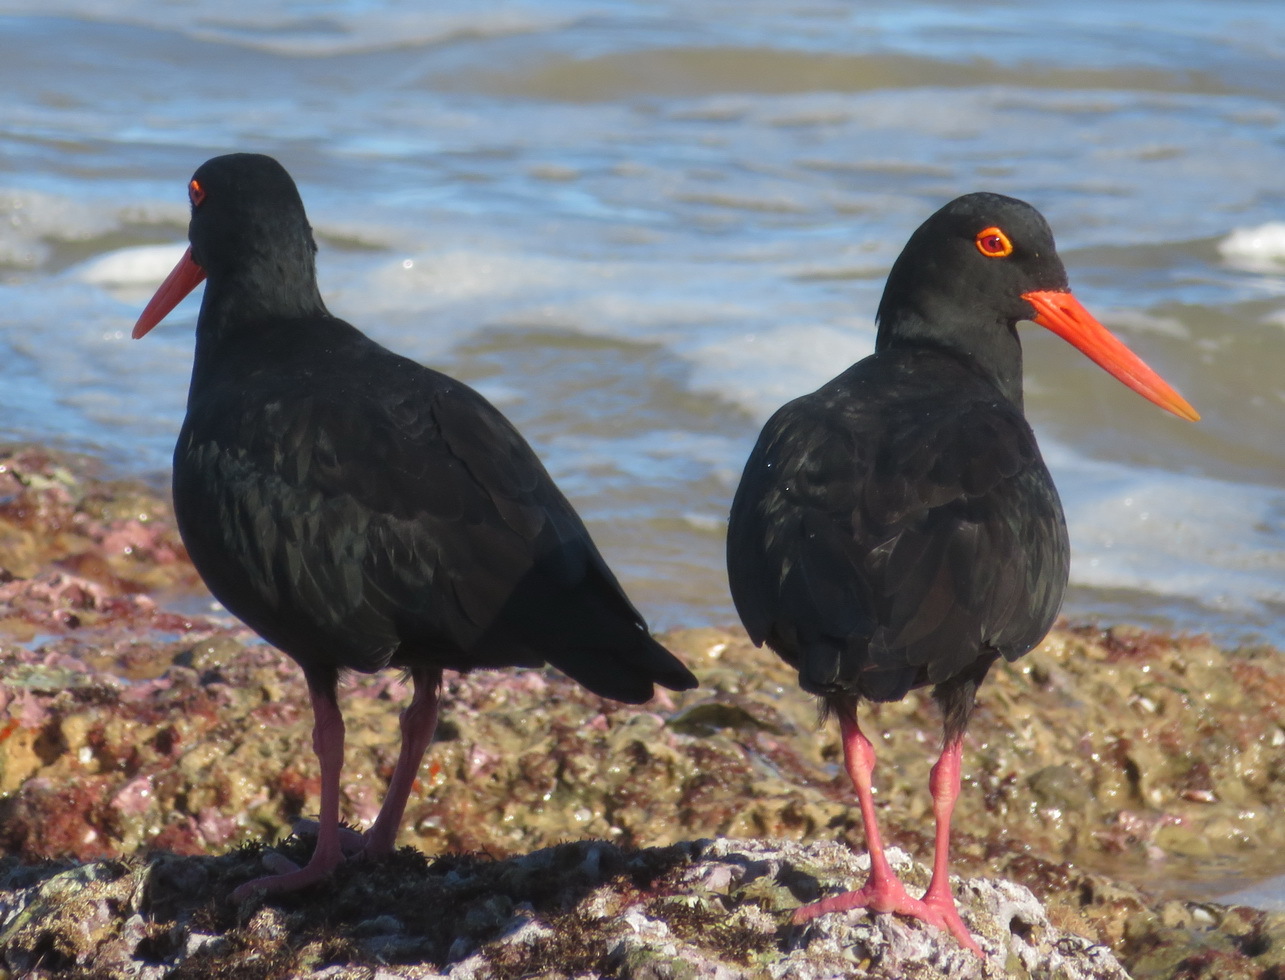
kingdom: Animalia
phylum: Chordata
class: Aves
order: Charadriiformes
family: Haematopodidae
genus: Haematopus
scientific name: Haematopus moquini
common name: African oystercatcher
